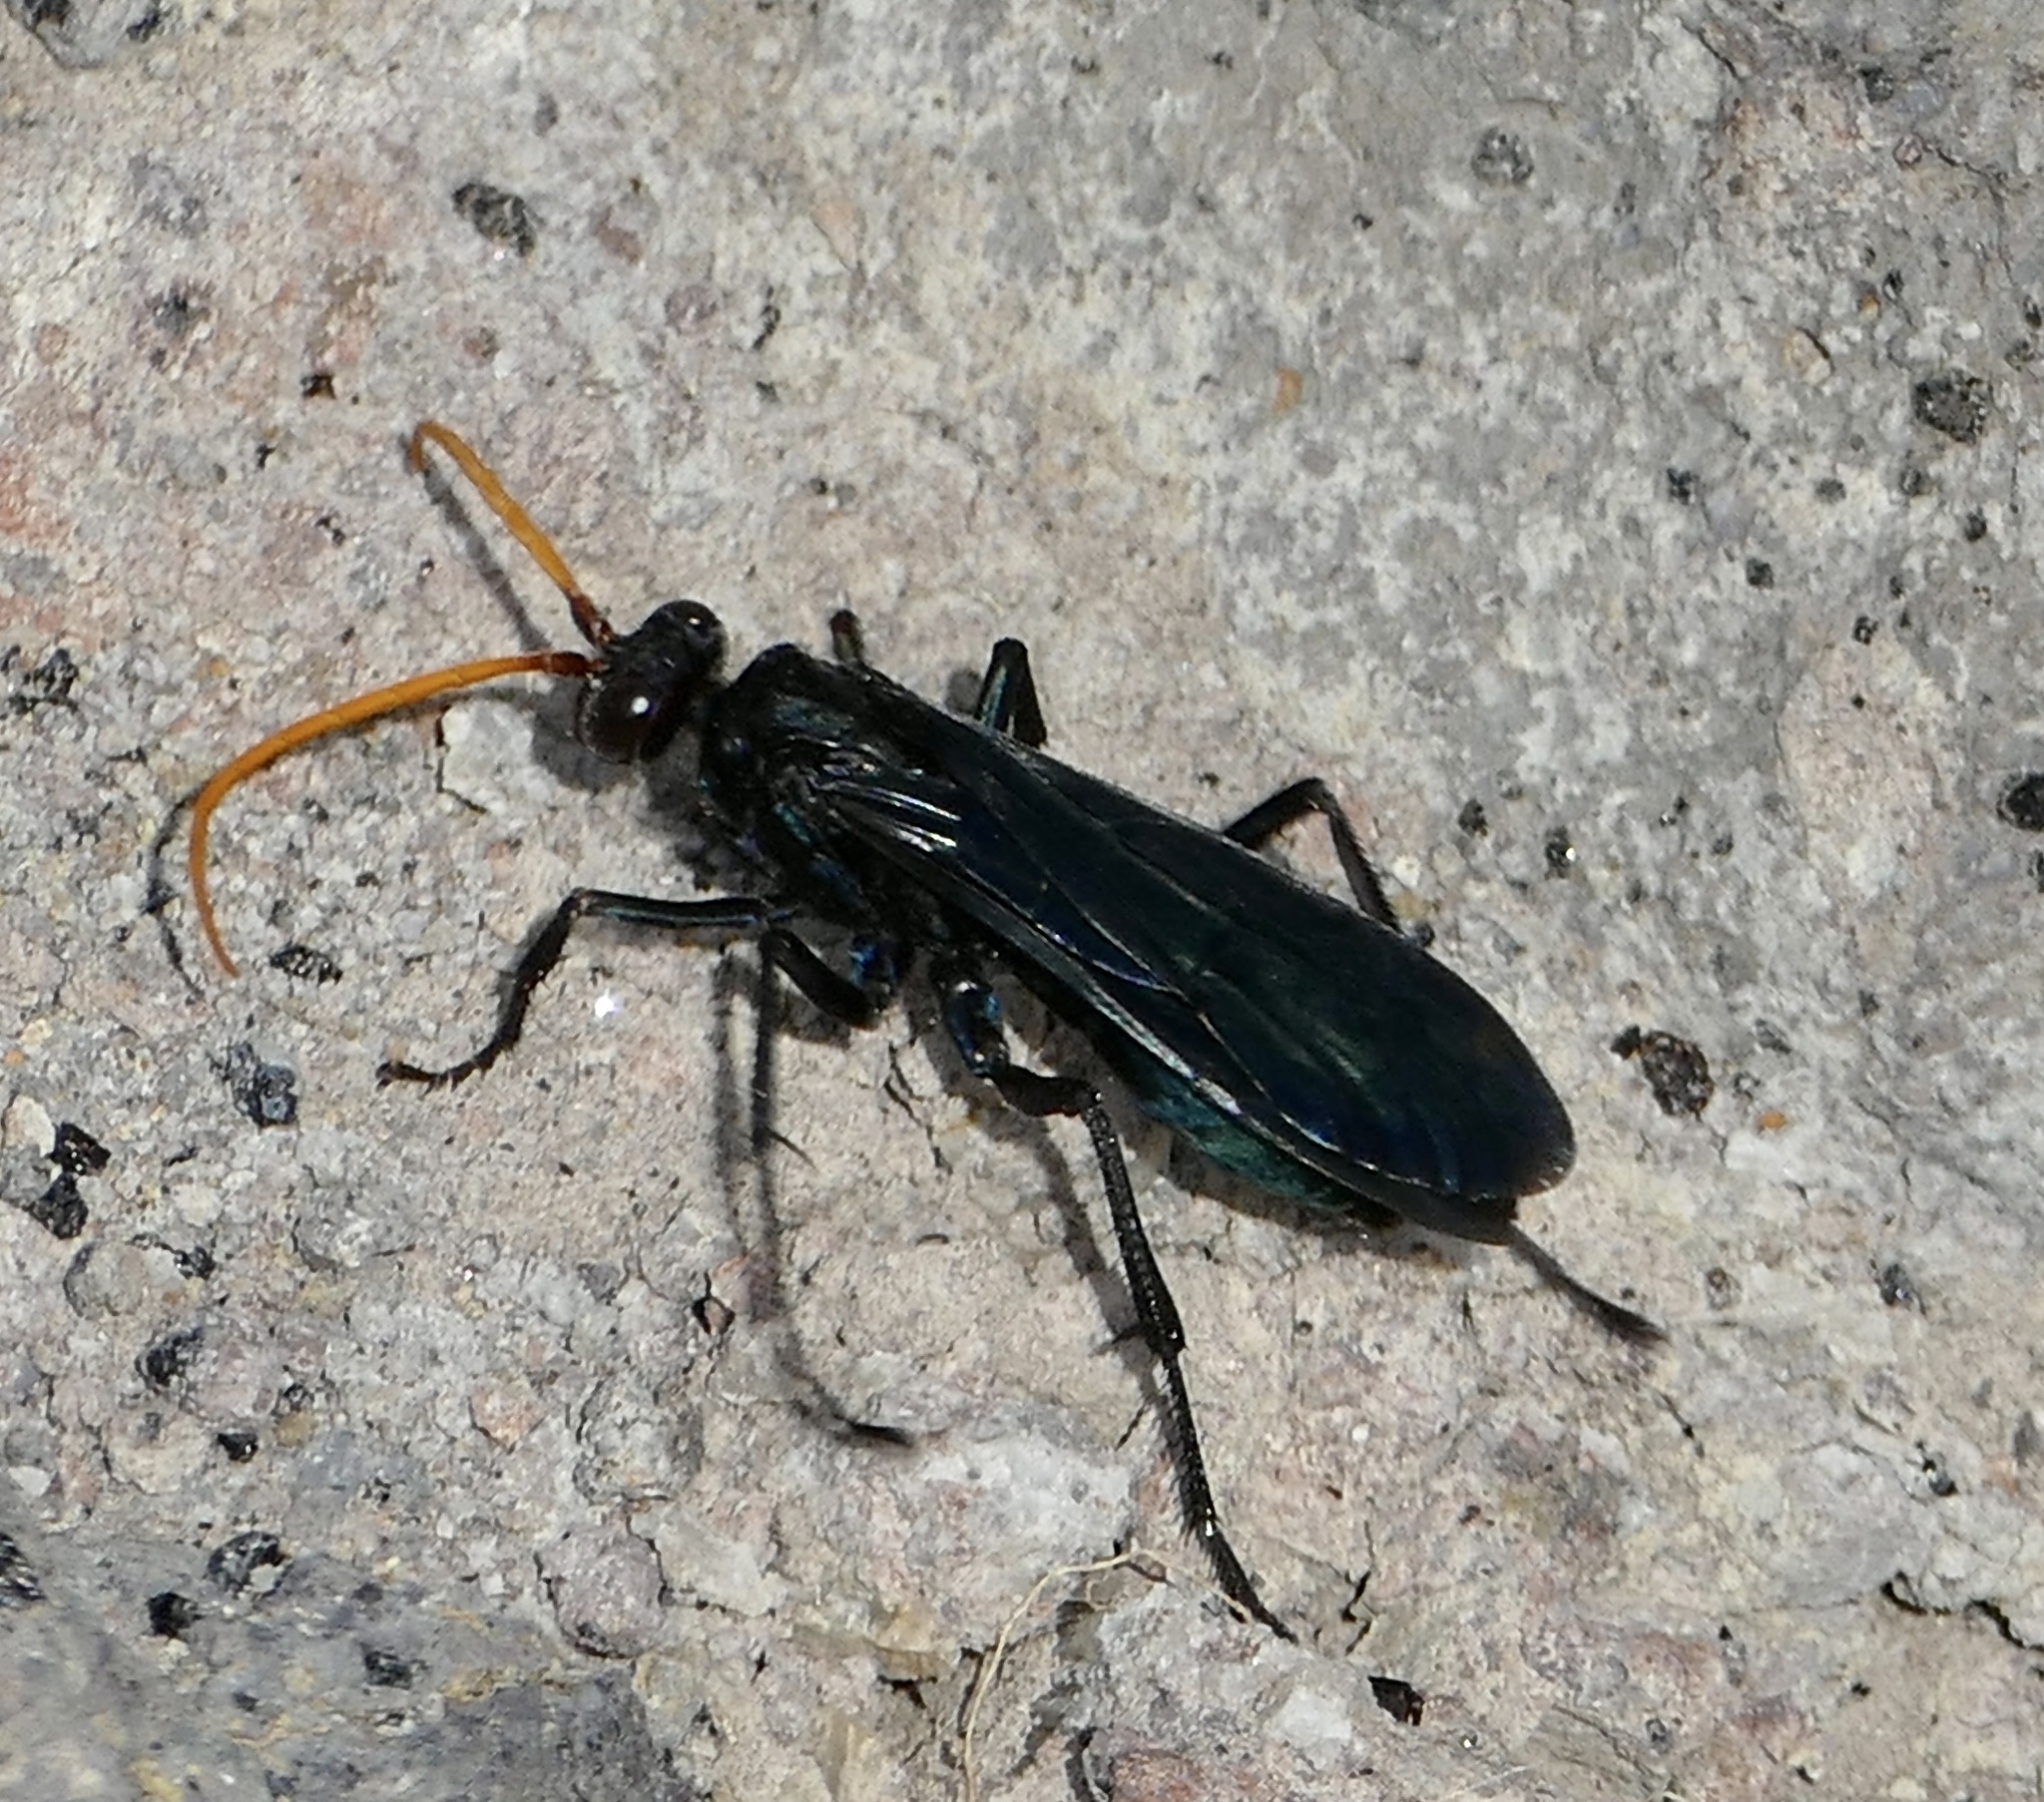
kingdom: Animalia
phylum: Arthropoda
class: Insecta
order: Hymenoptera
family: Pompilidae
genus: Cyphononyx
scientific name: Cyphononyx bretonii
